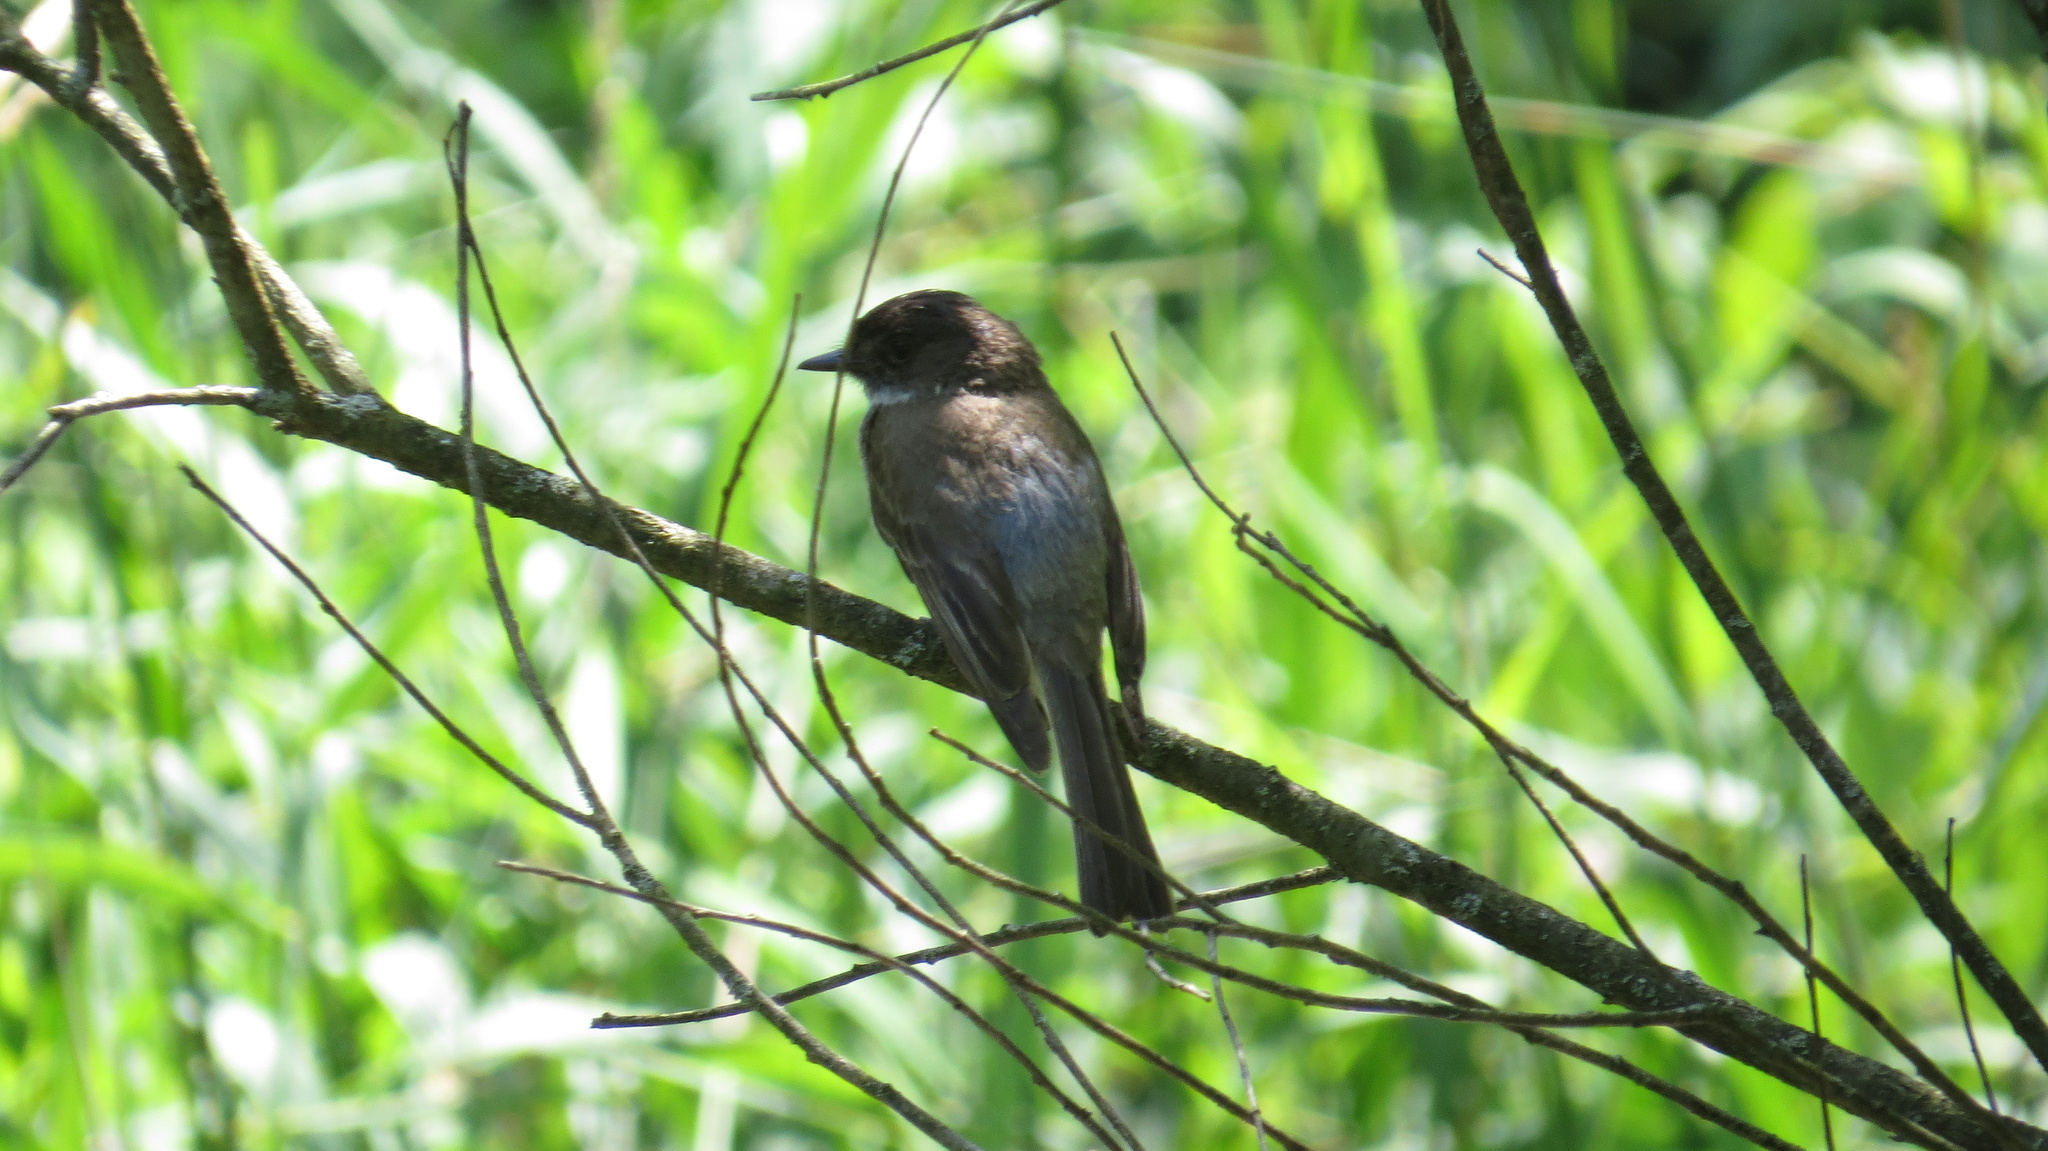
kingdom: Animalia
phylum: Chordata
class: Aves
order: Passeriformes
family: Tyrannidae
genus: Sayornis
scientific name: Sayornis phoebe
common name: Eastern phoebe
